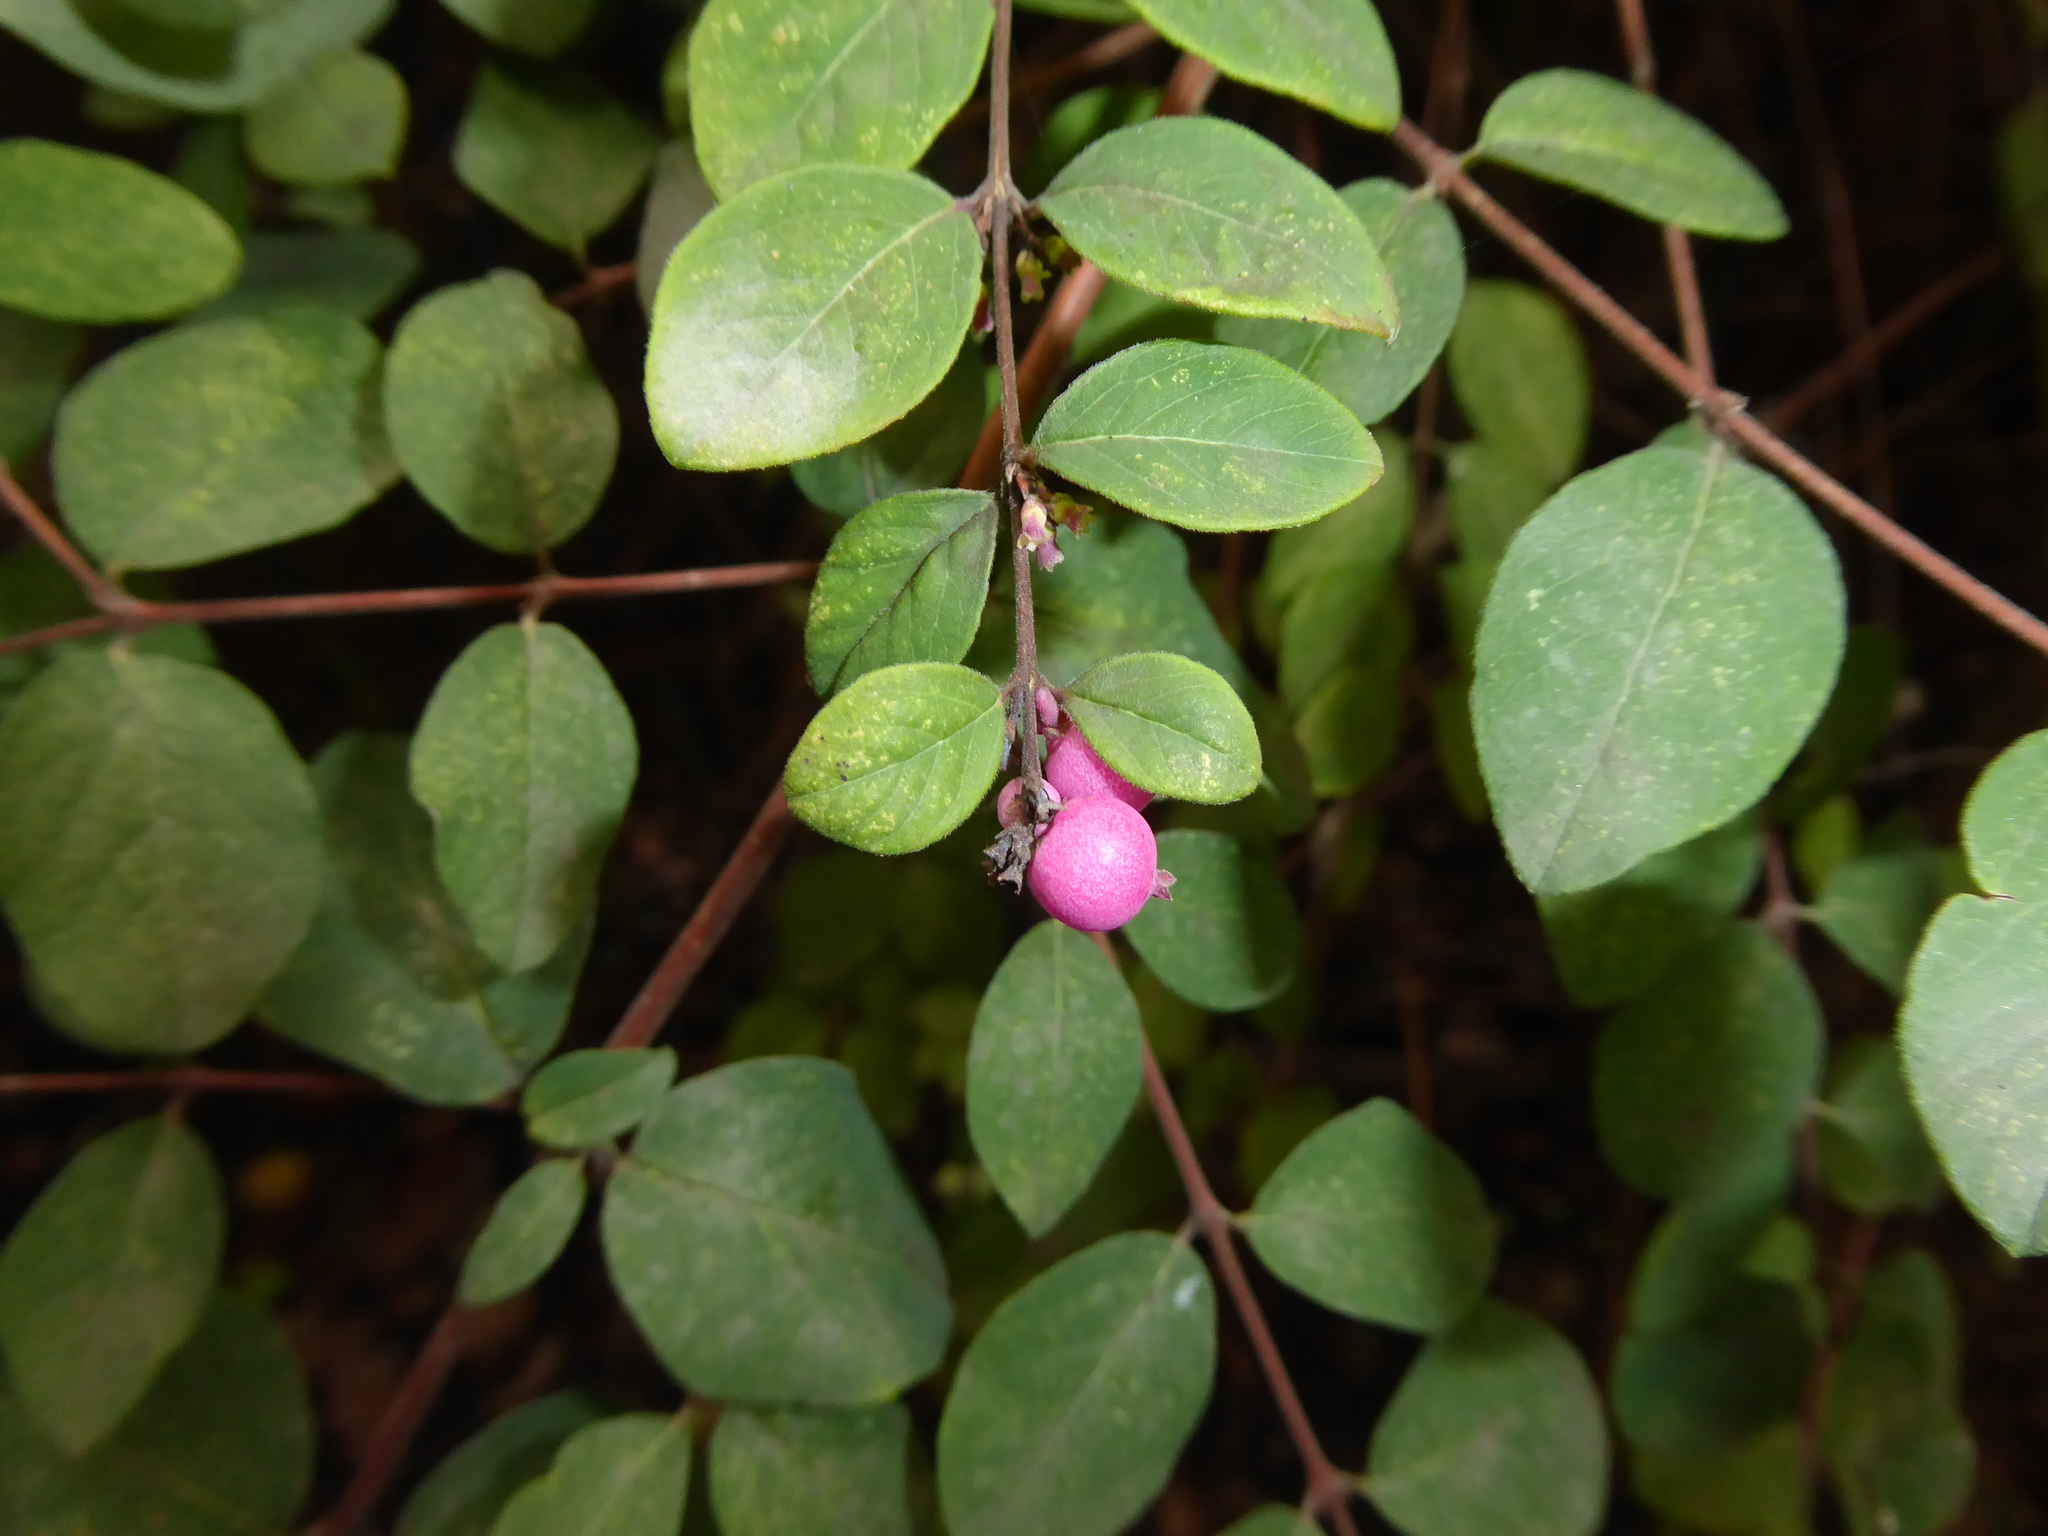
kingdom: Plantae
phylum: Tracheophyta
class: Magnoliopsida
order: Dipsacales
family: Caprifoliaceae
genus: Symphoricarpos
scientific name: Symphoricarpos chenaultii
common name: Hybrid coralberry
